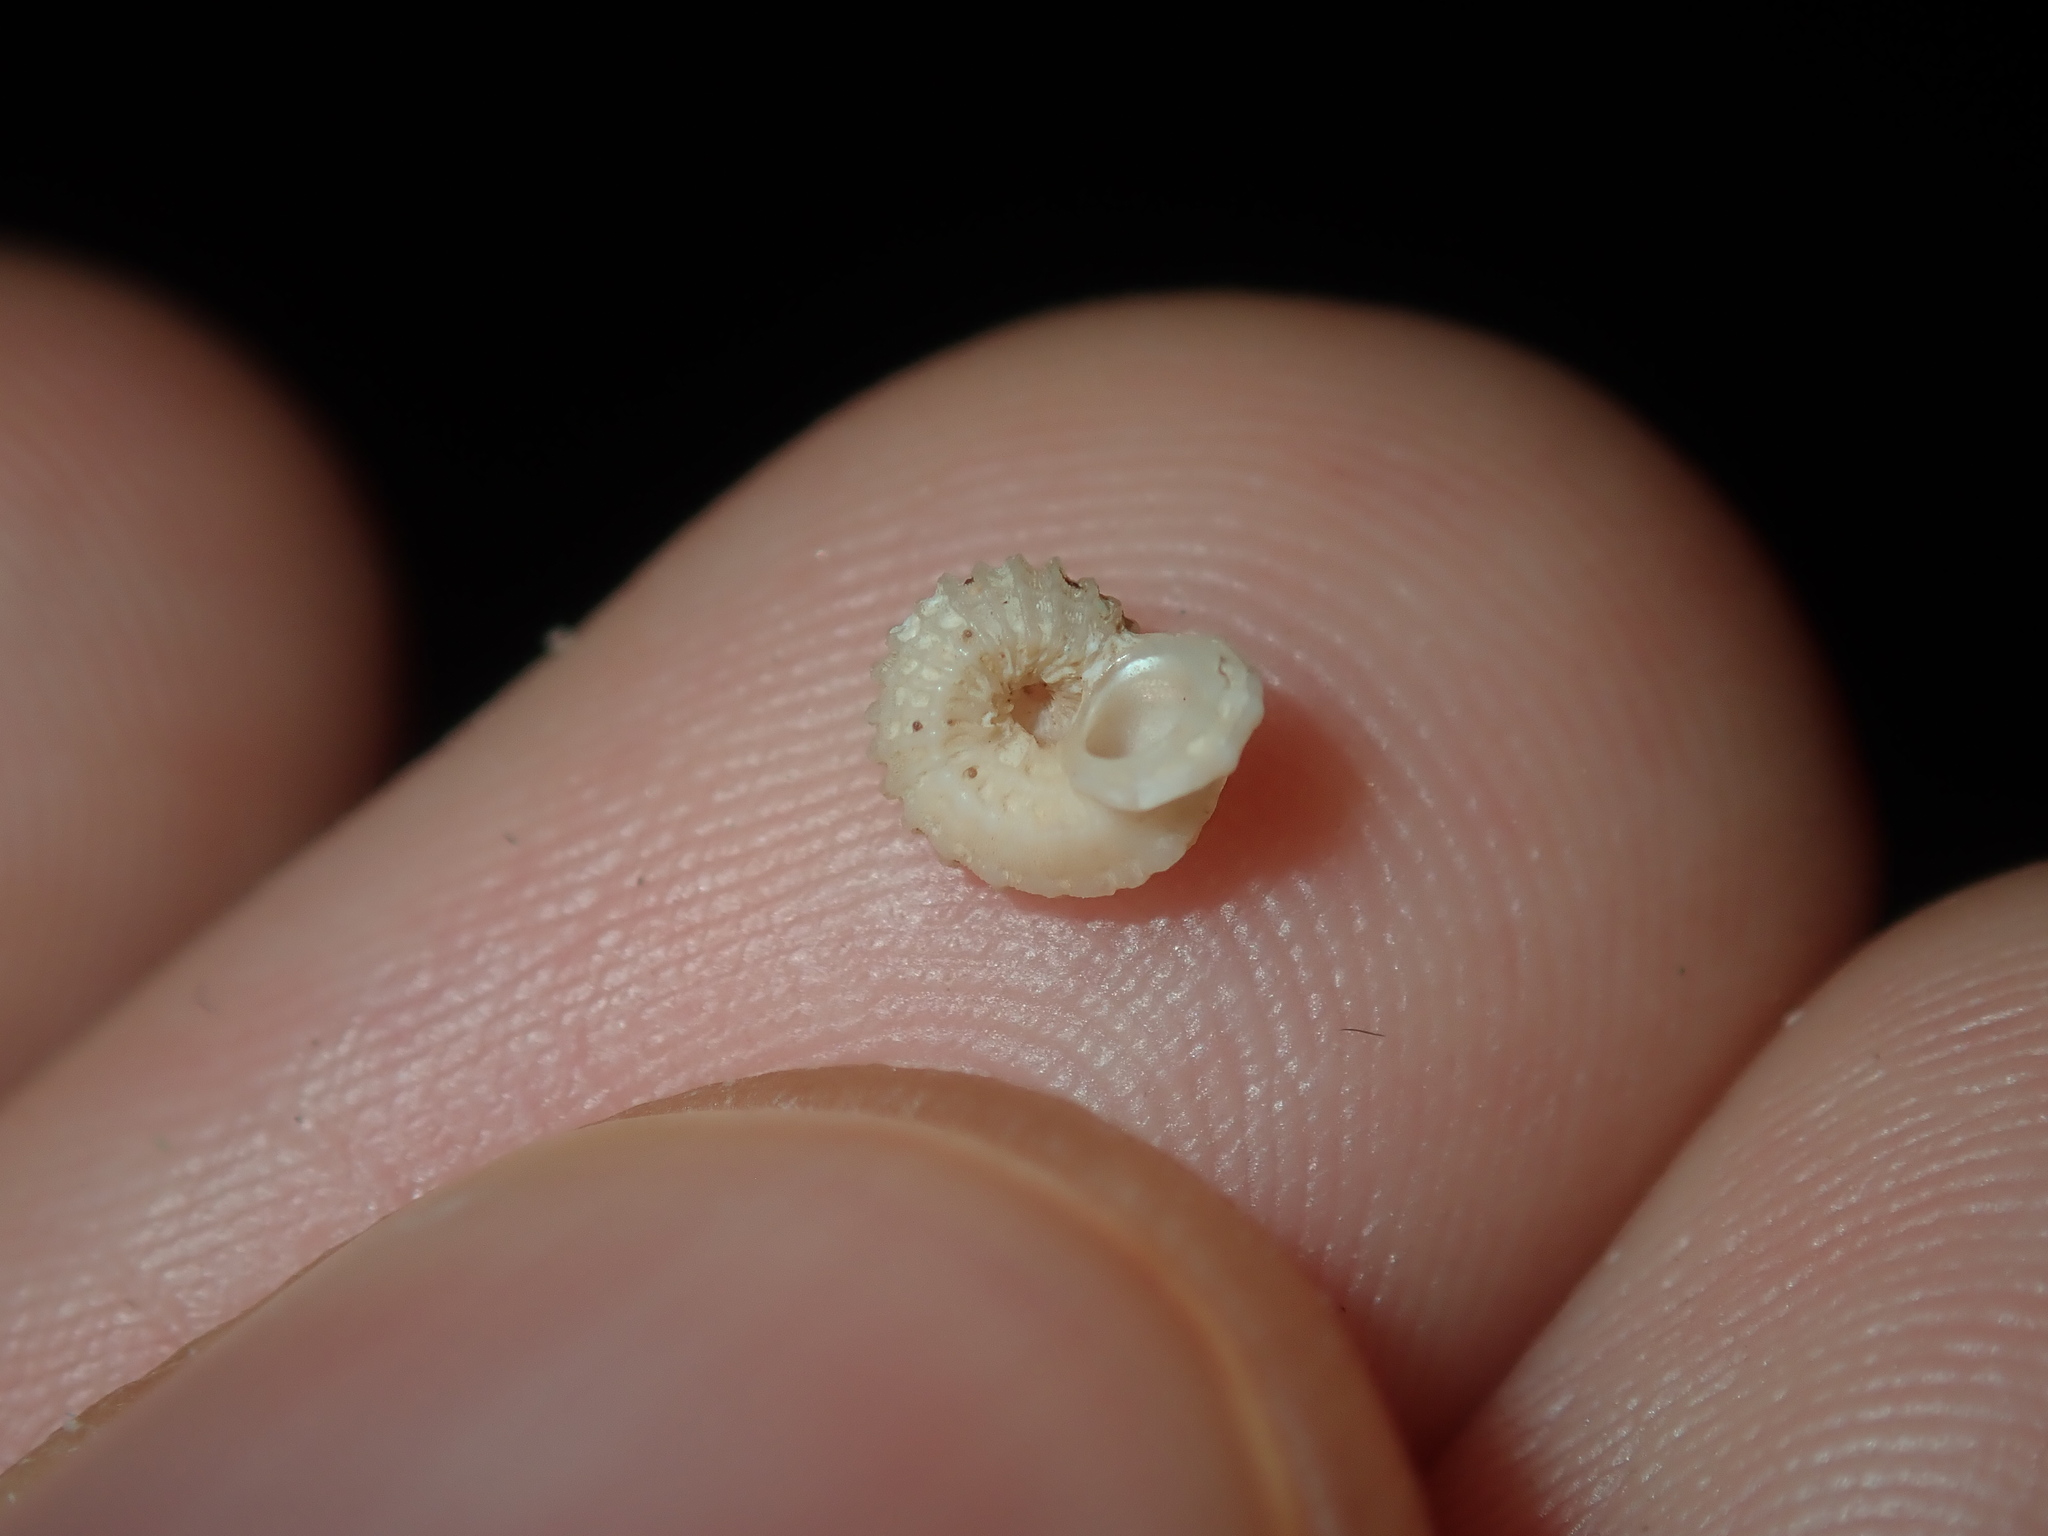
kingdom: Animalia
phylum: Mollusca
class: Gastropoda
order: Trochida
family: Liotiidae
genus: Austroliotia
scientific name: Austroliotia botanica
